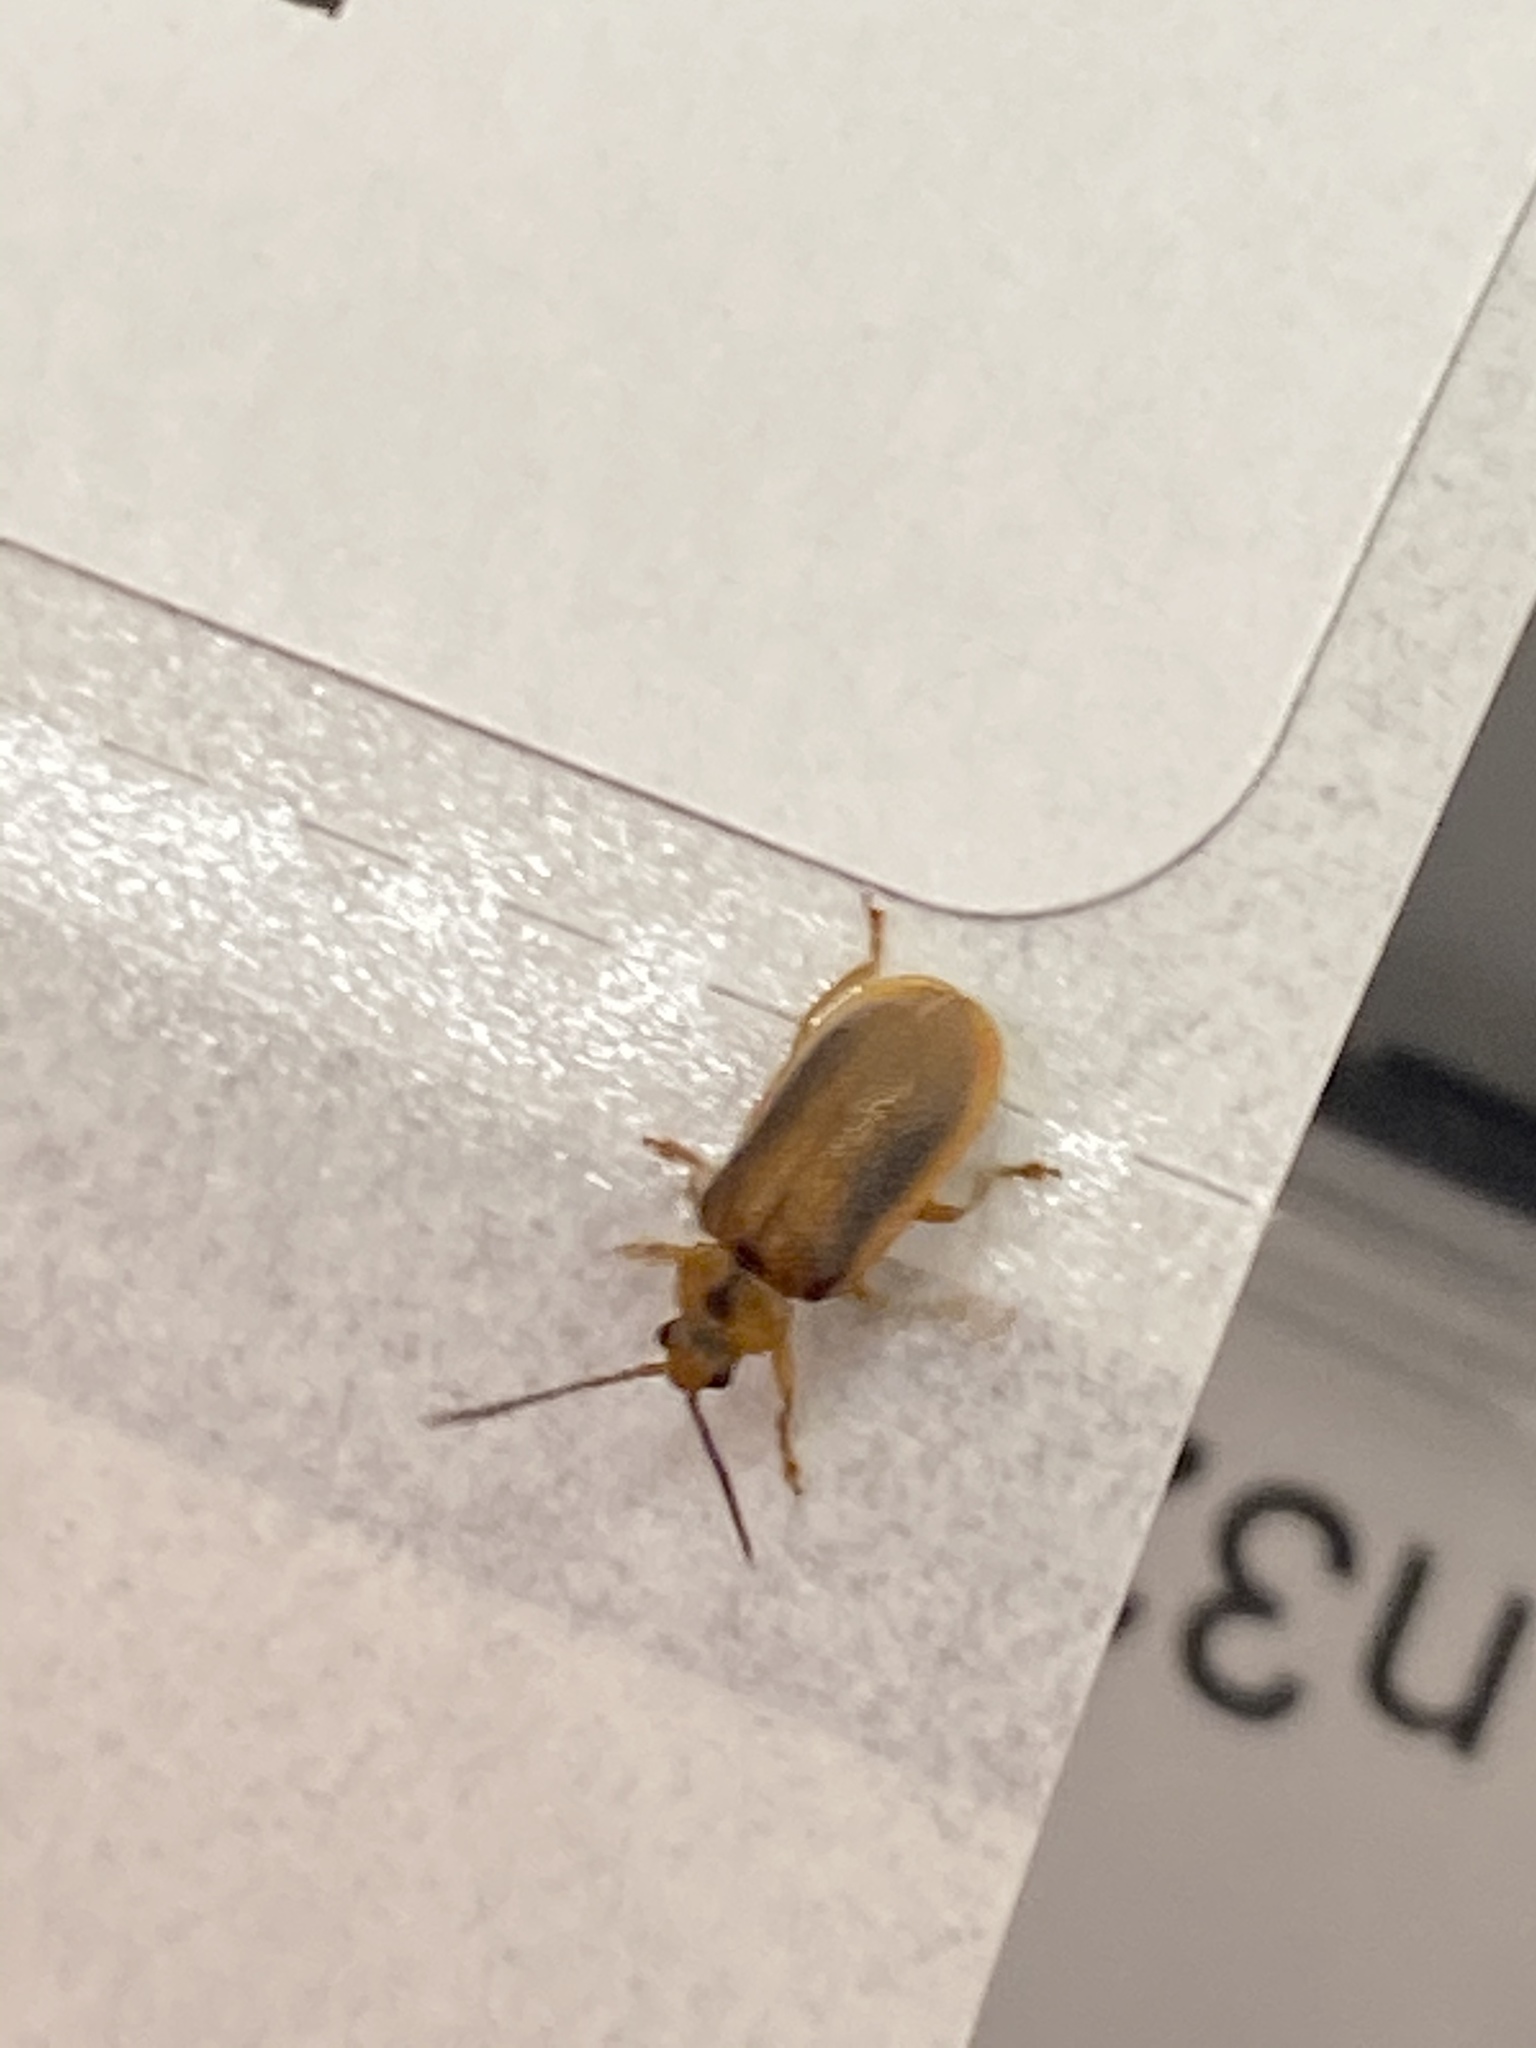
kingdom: Animalia
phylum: Arthropoda
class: Insecta
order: Coleoptera
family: Chrysomelidae
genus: Neogalerucella
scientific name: Neogalerucella calmariensis
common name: Black-margined loosestrife beetle
